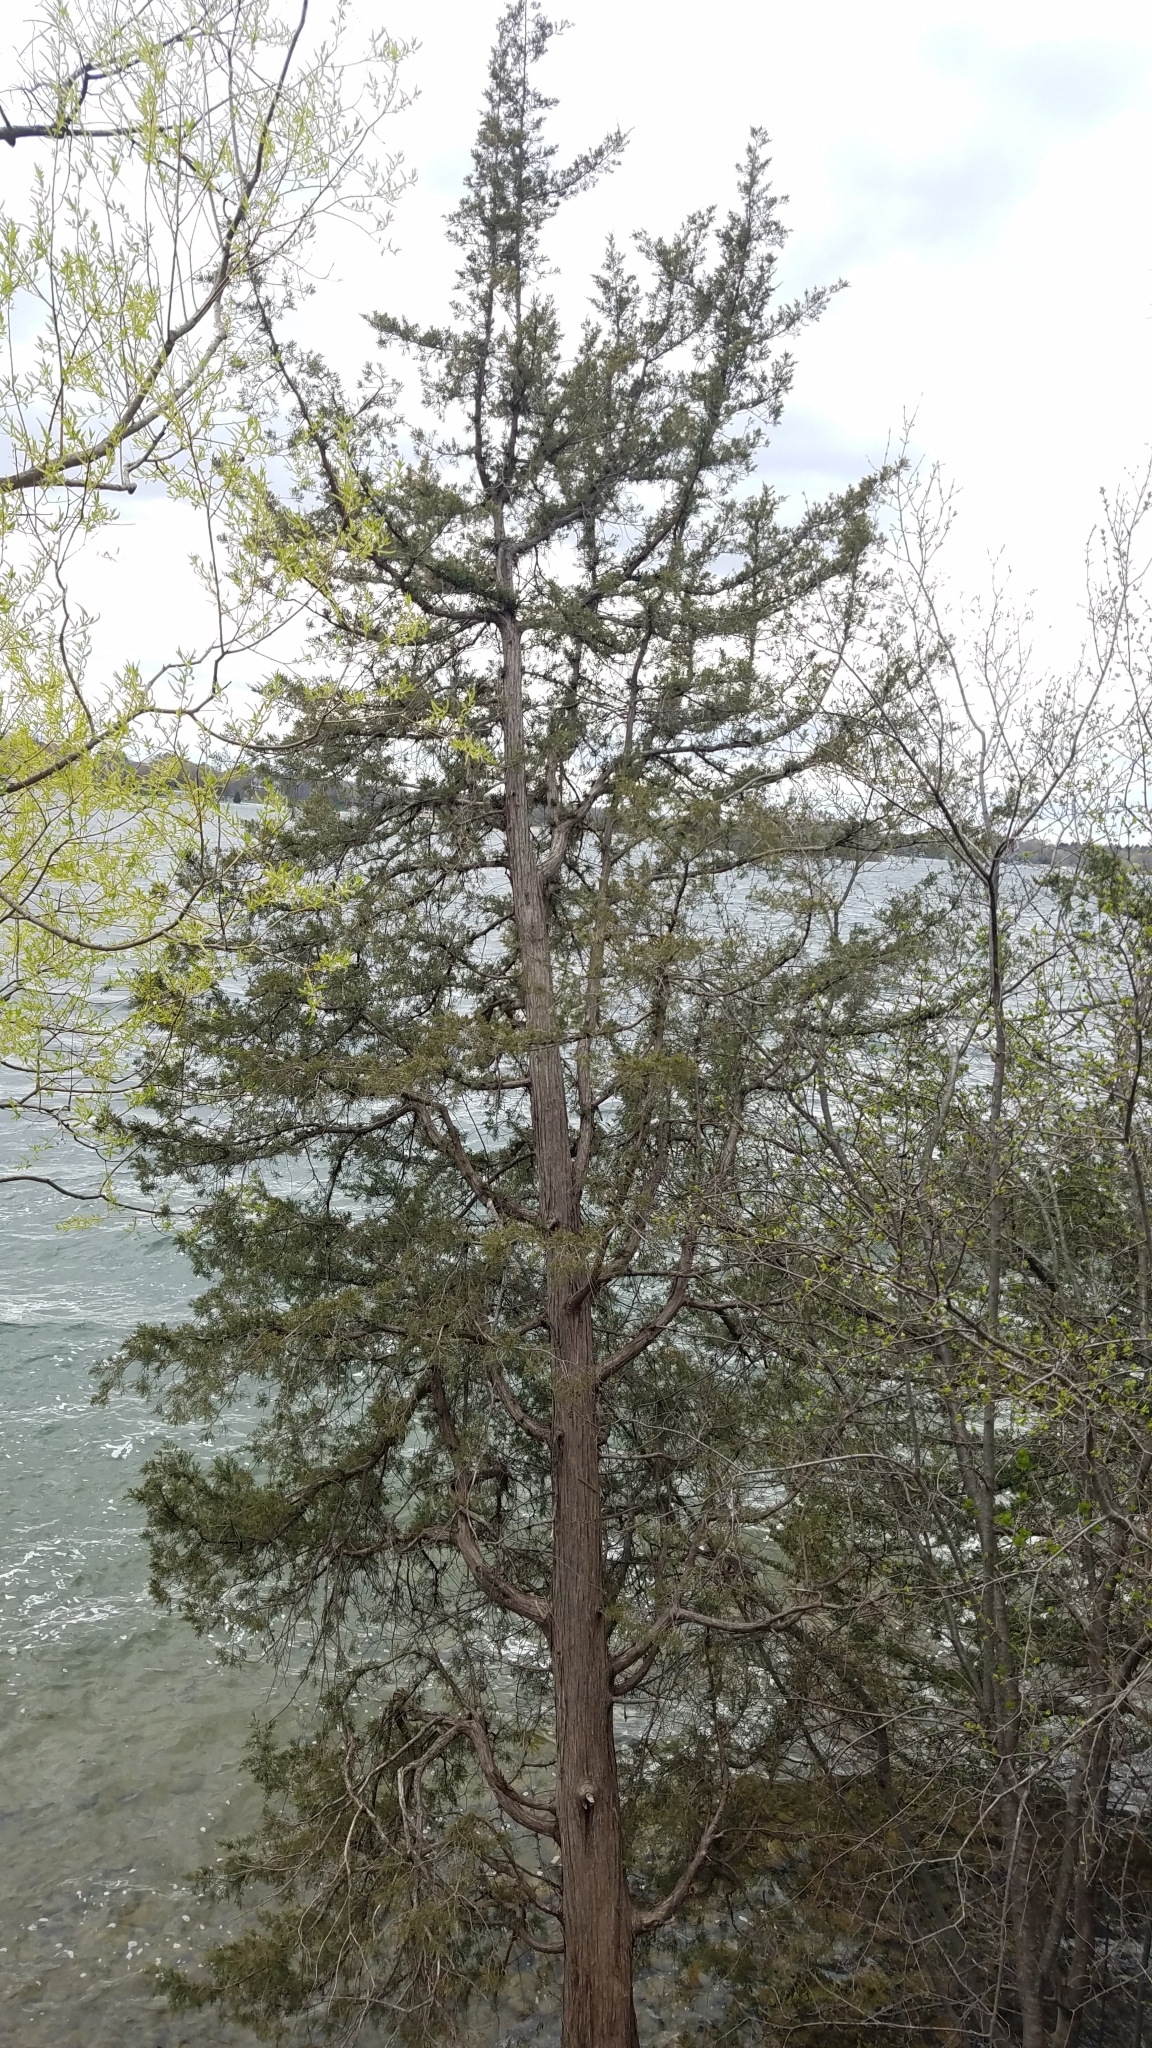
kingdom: Plantae
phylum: Tracheophyta
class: Pinopsida
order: Pinales
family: Cupressaceae
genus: Juniperus
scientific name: Juniperus virginiana
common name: Red juniper
